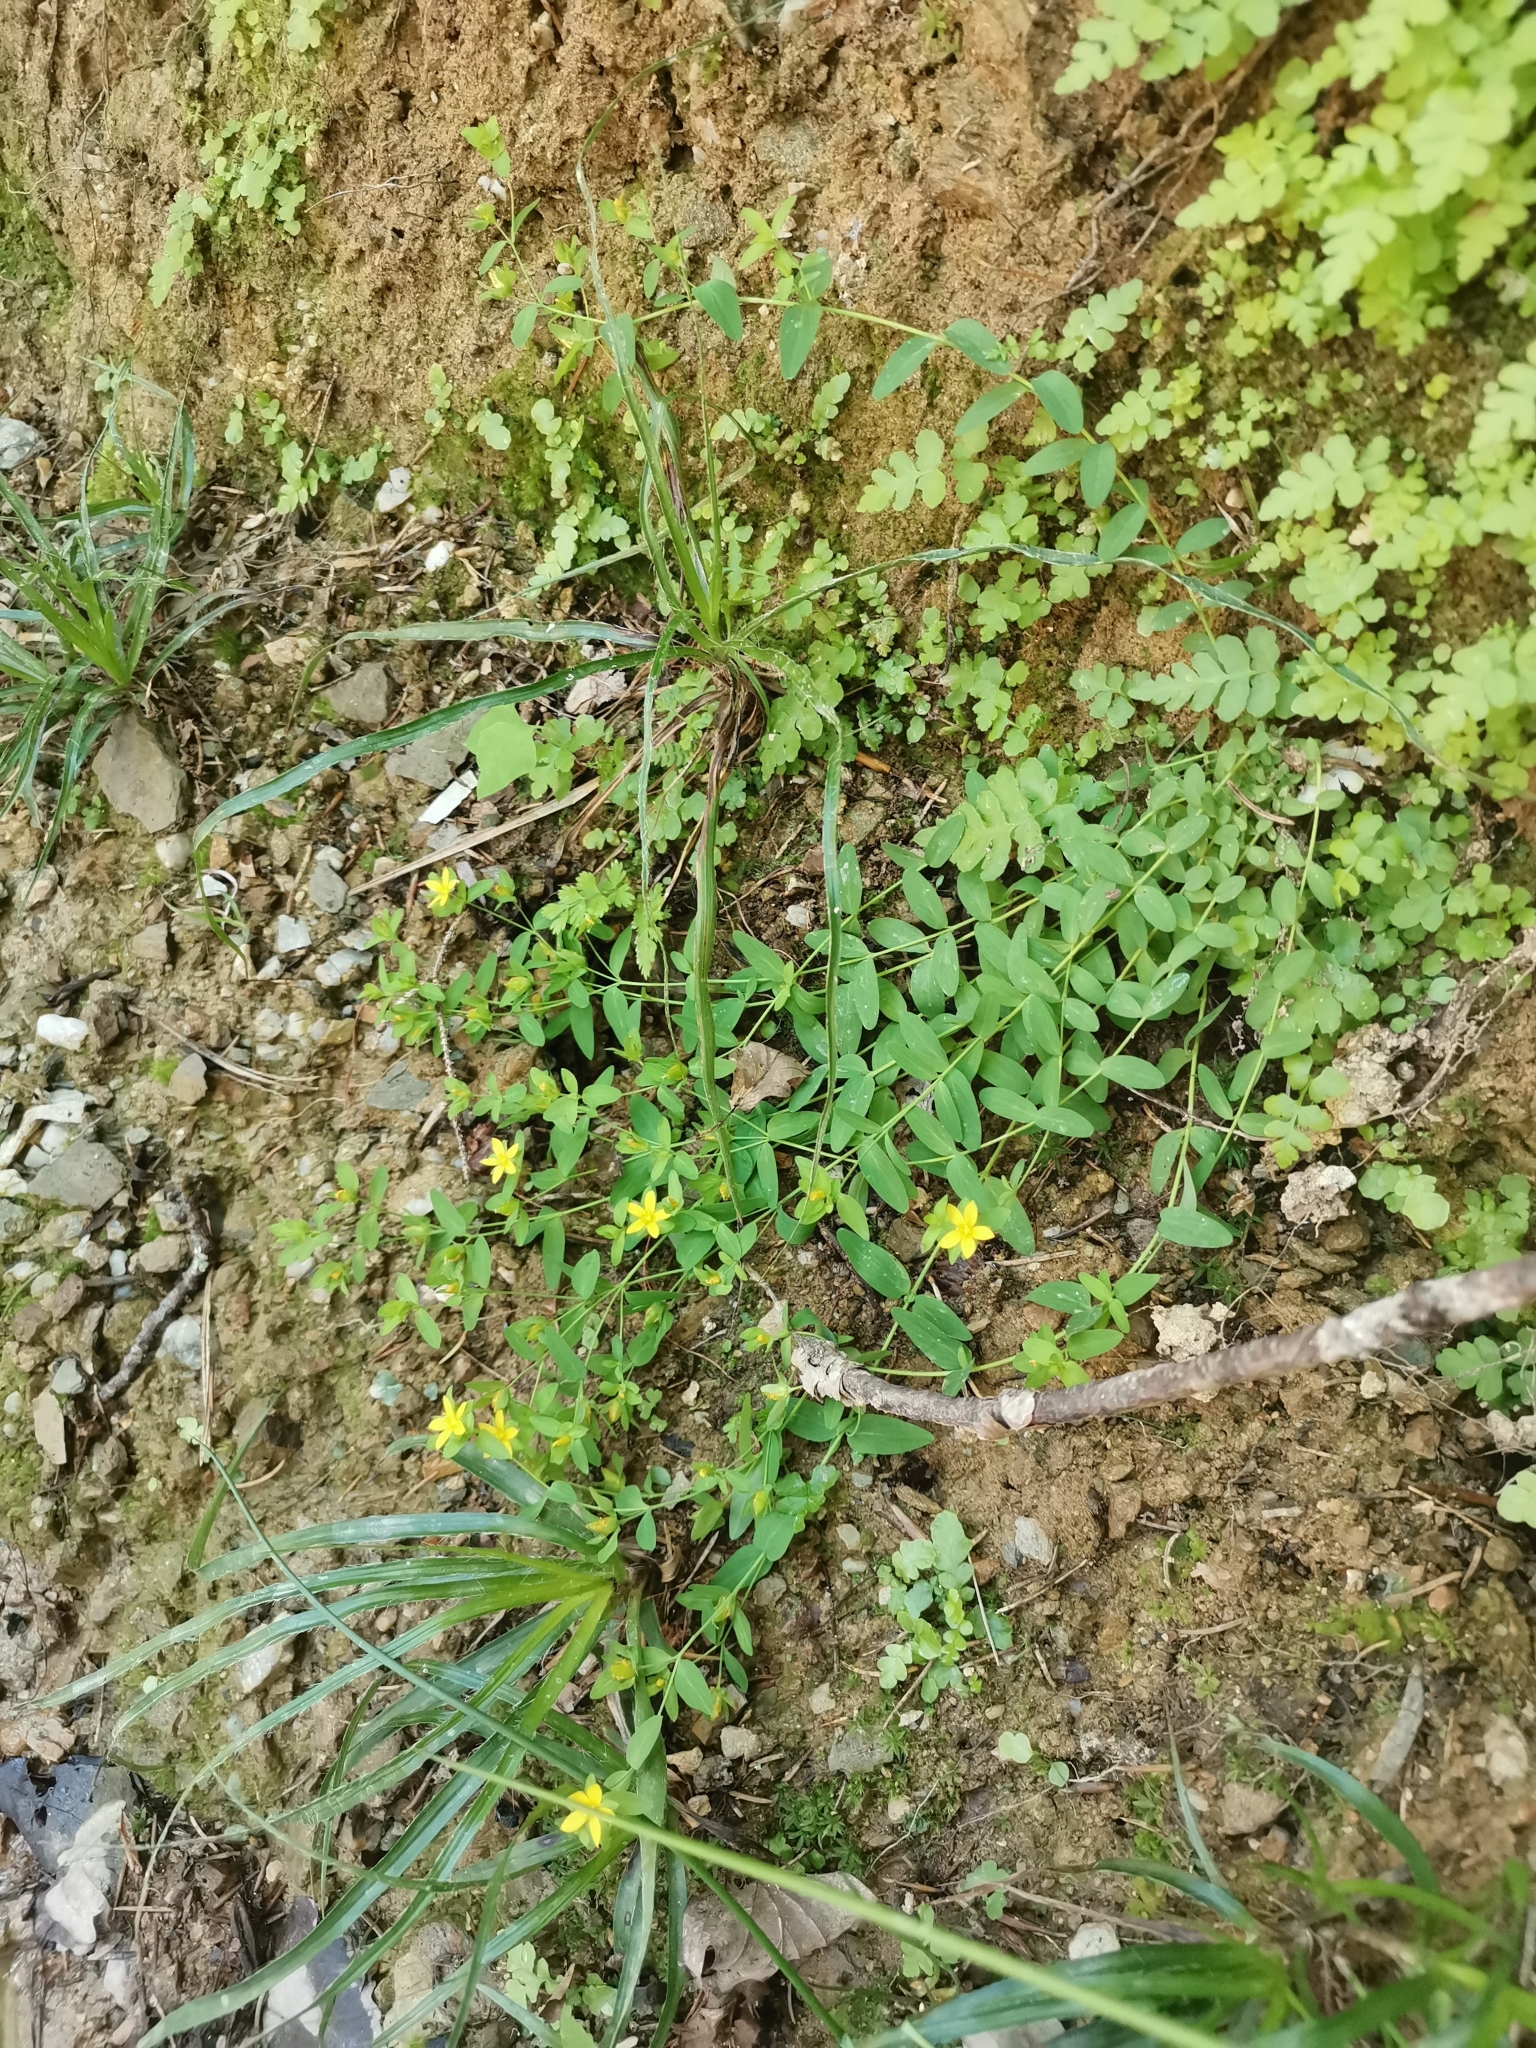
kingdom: Plantae
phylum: Tracheophyta
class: Magnoliopsida
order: Malpighiales
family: Hypericaceae
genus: Hypericum
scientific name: Hypericum humifusum
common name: Trailing st. john's-wort
